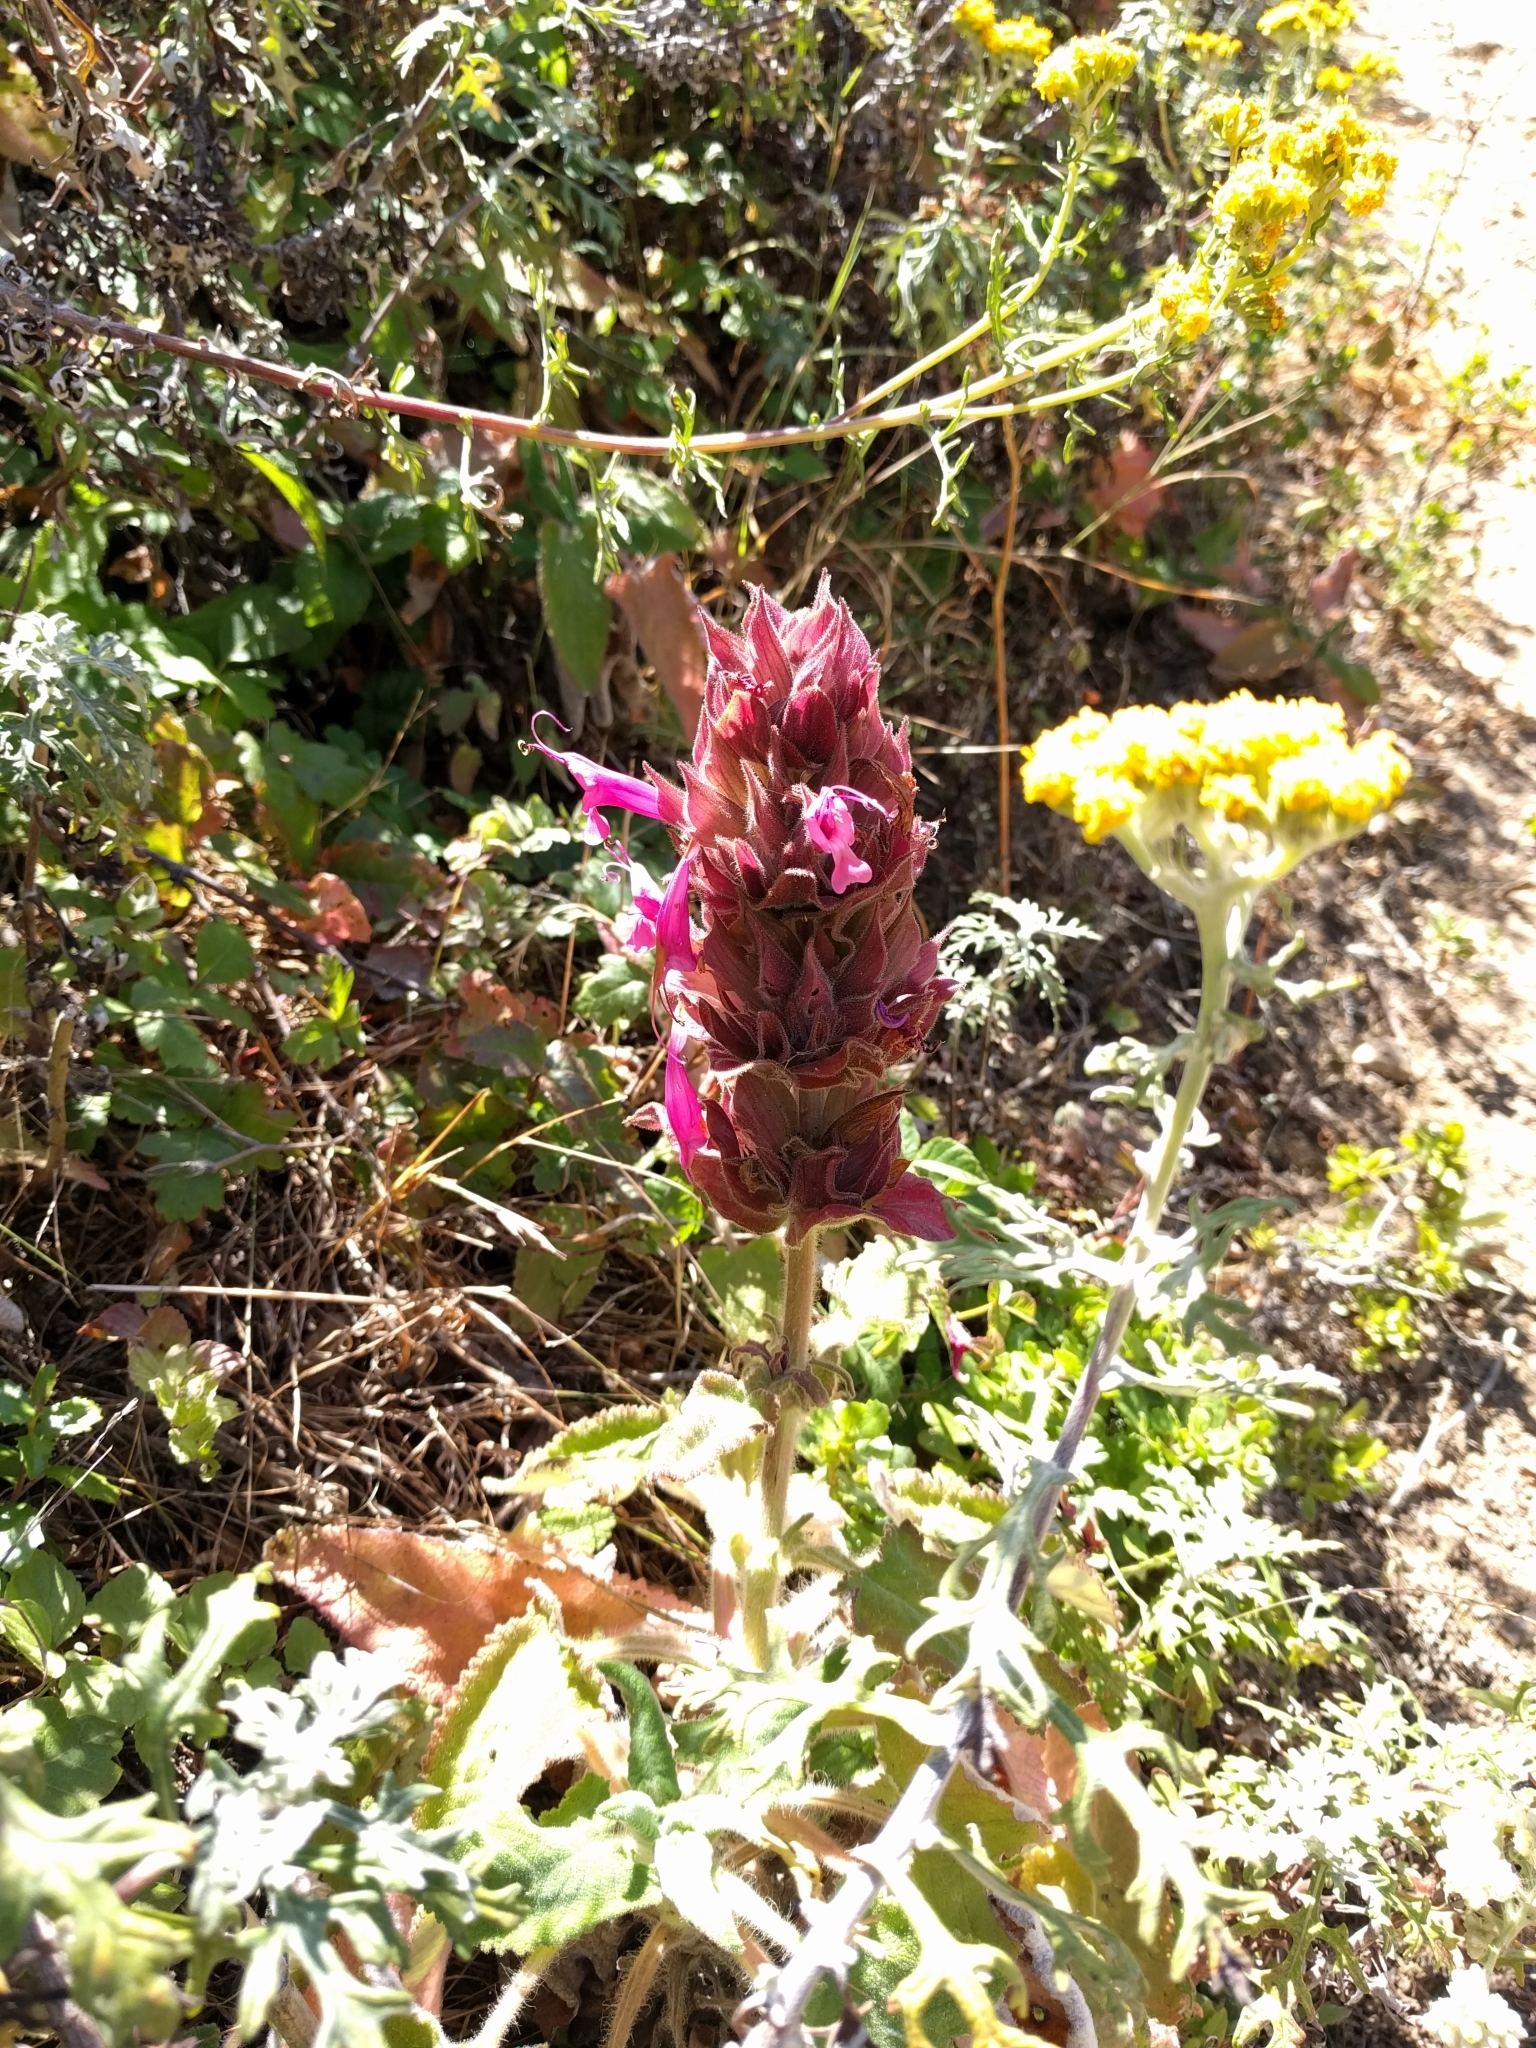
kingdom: Plantae
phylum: Tracheophyta
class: Magnoliopsida
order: Lamiales
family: Lamiaceae
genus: Salvia
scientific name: Salvia spathacea
